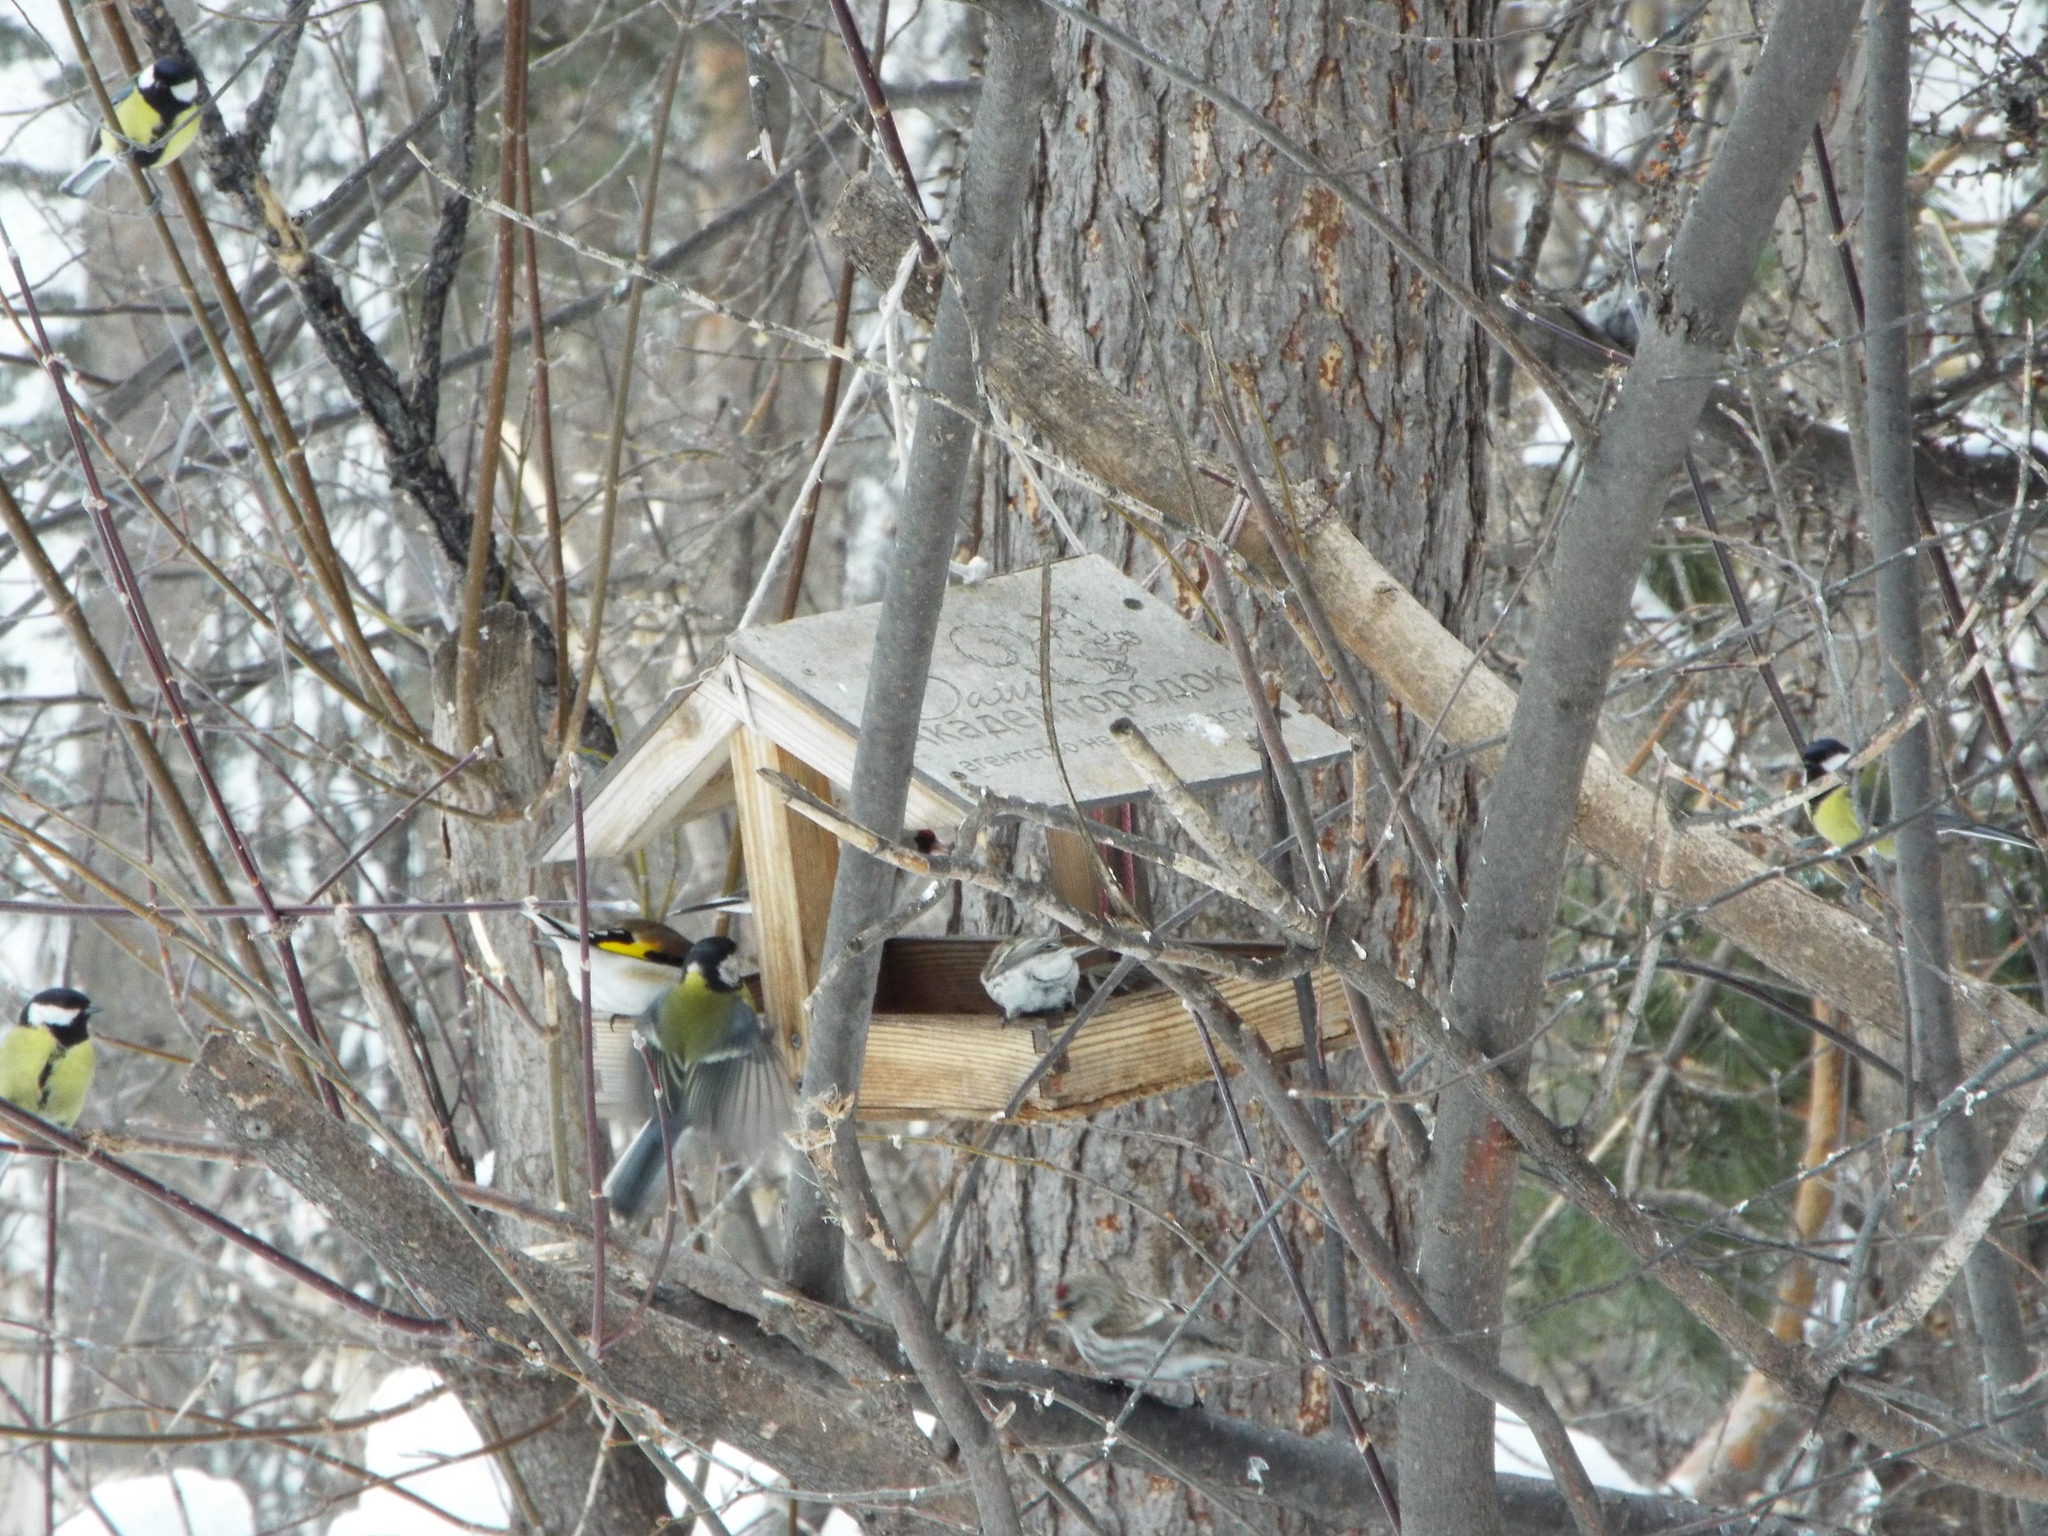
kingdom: Animalia
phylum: Chordata
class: Aves
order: Passeriformes
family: Fringillidae
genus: Acanthis
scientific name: Acanthis flammea
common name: Common redpoll
